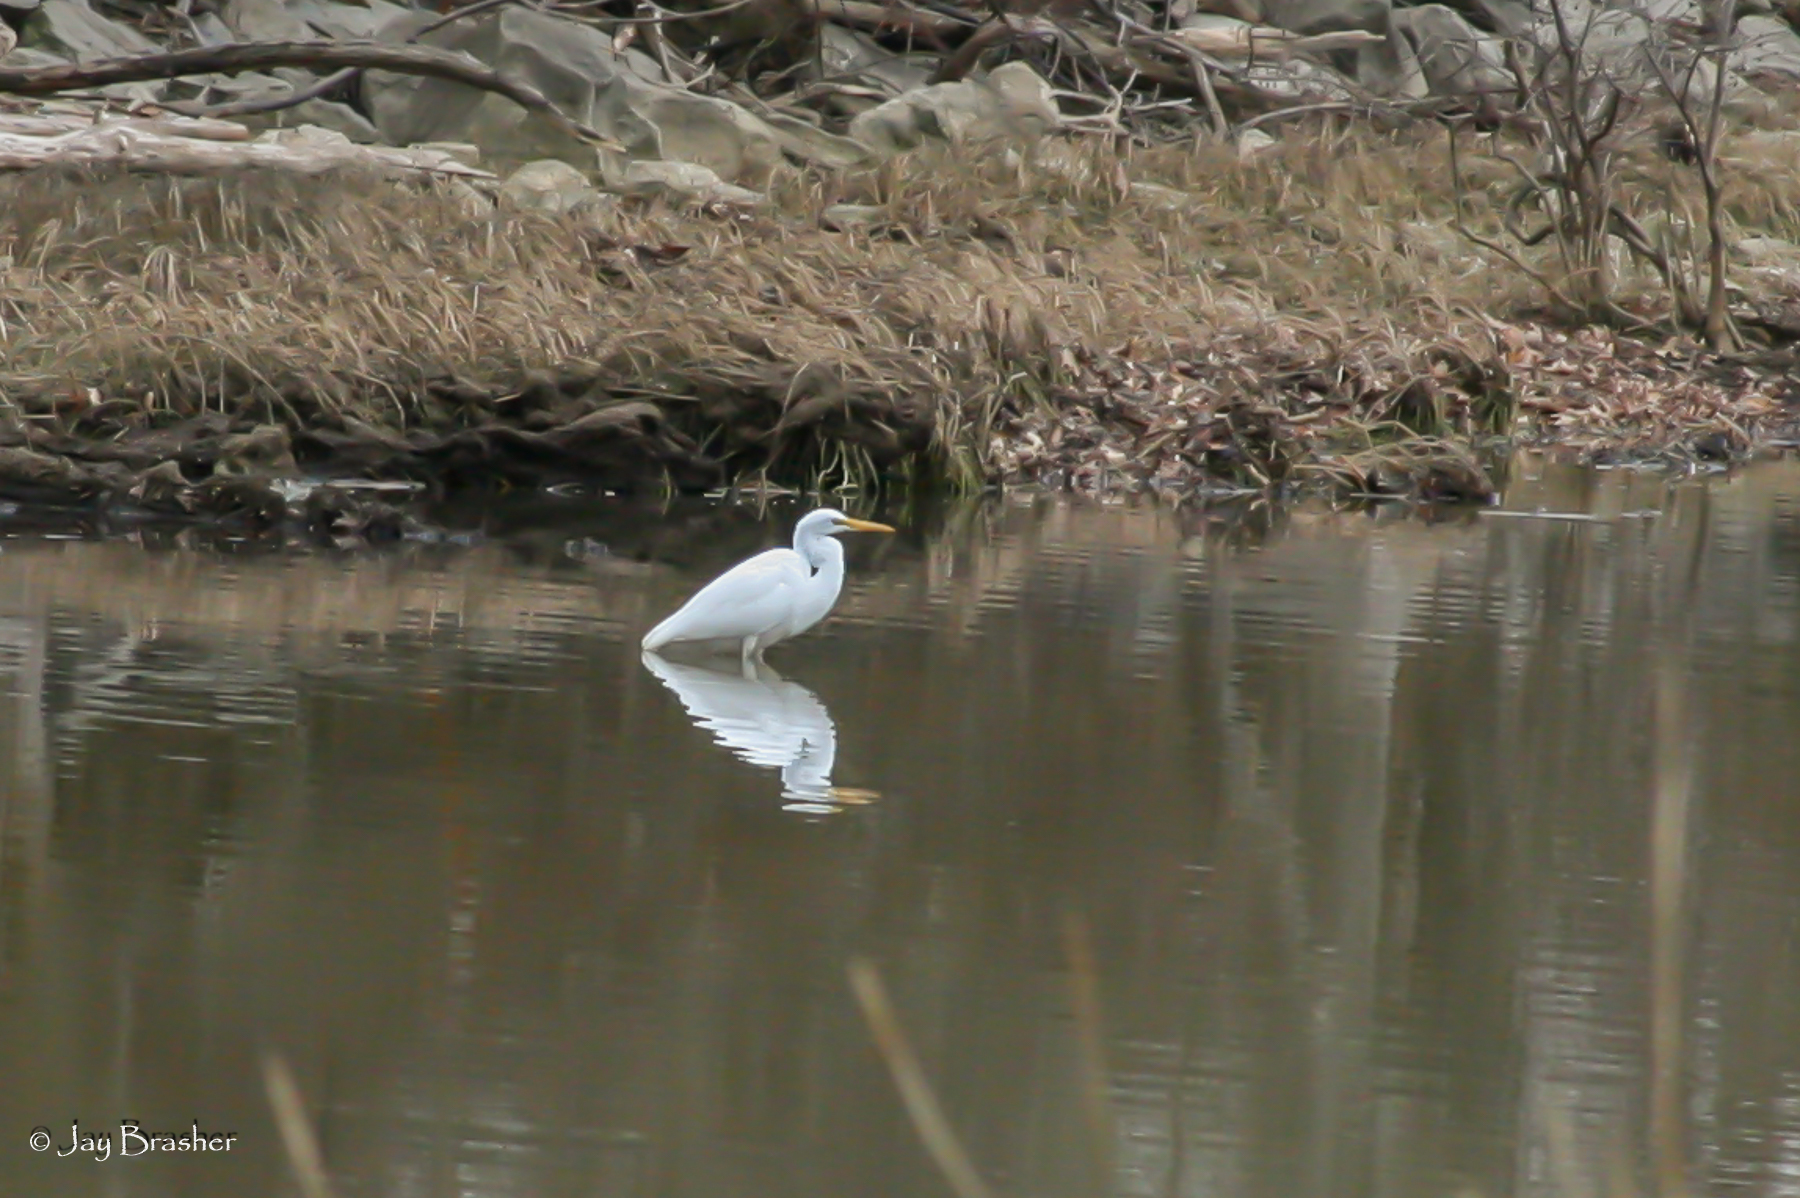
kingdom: Animalia
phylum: Chordata
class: Aves
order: Pelecaniformes
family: Ardeidae
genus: Ardea
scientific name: Ardea alba
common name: Great egret
